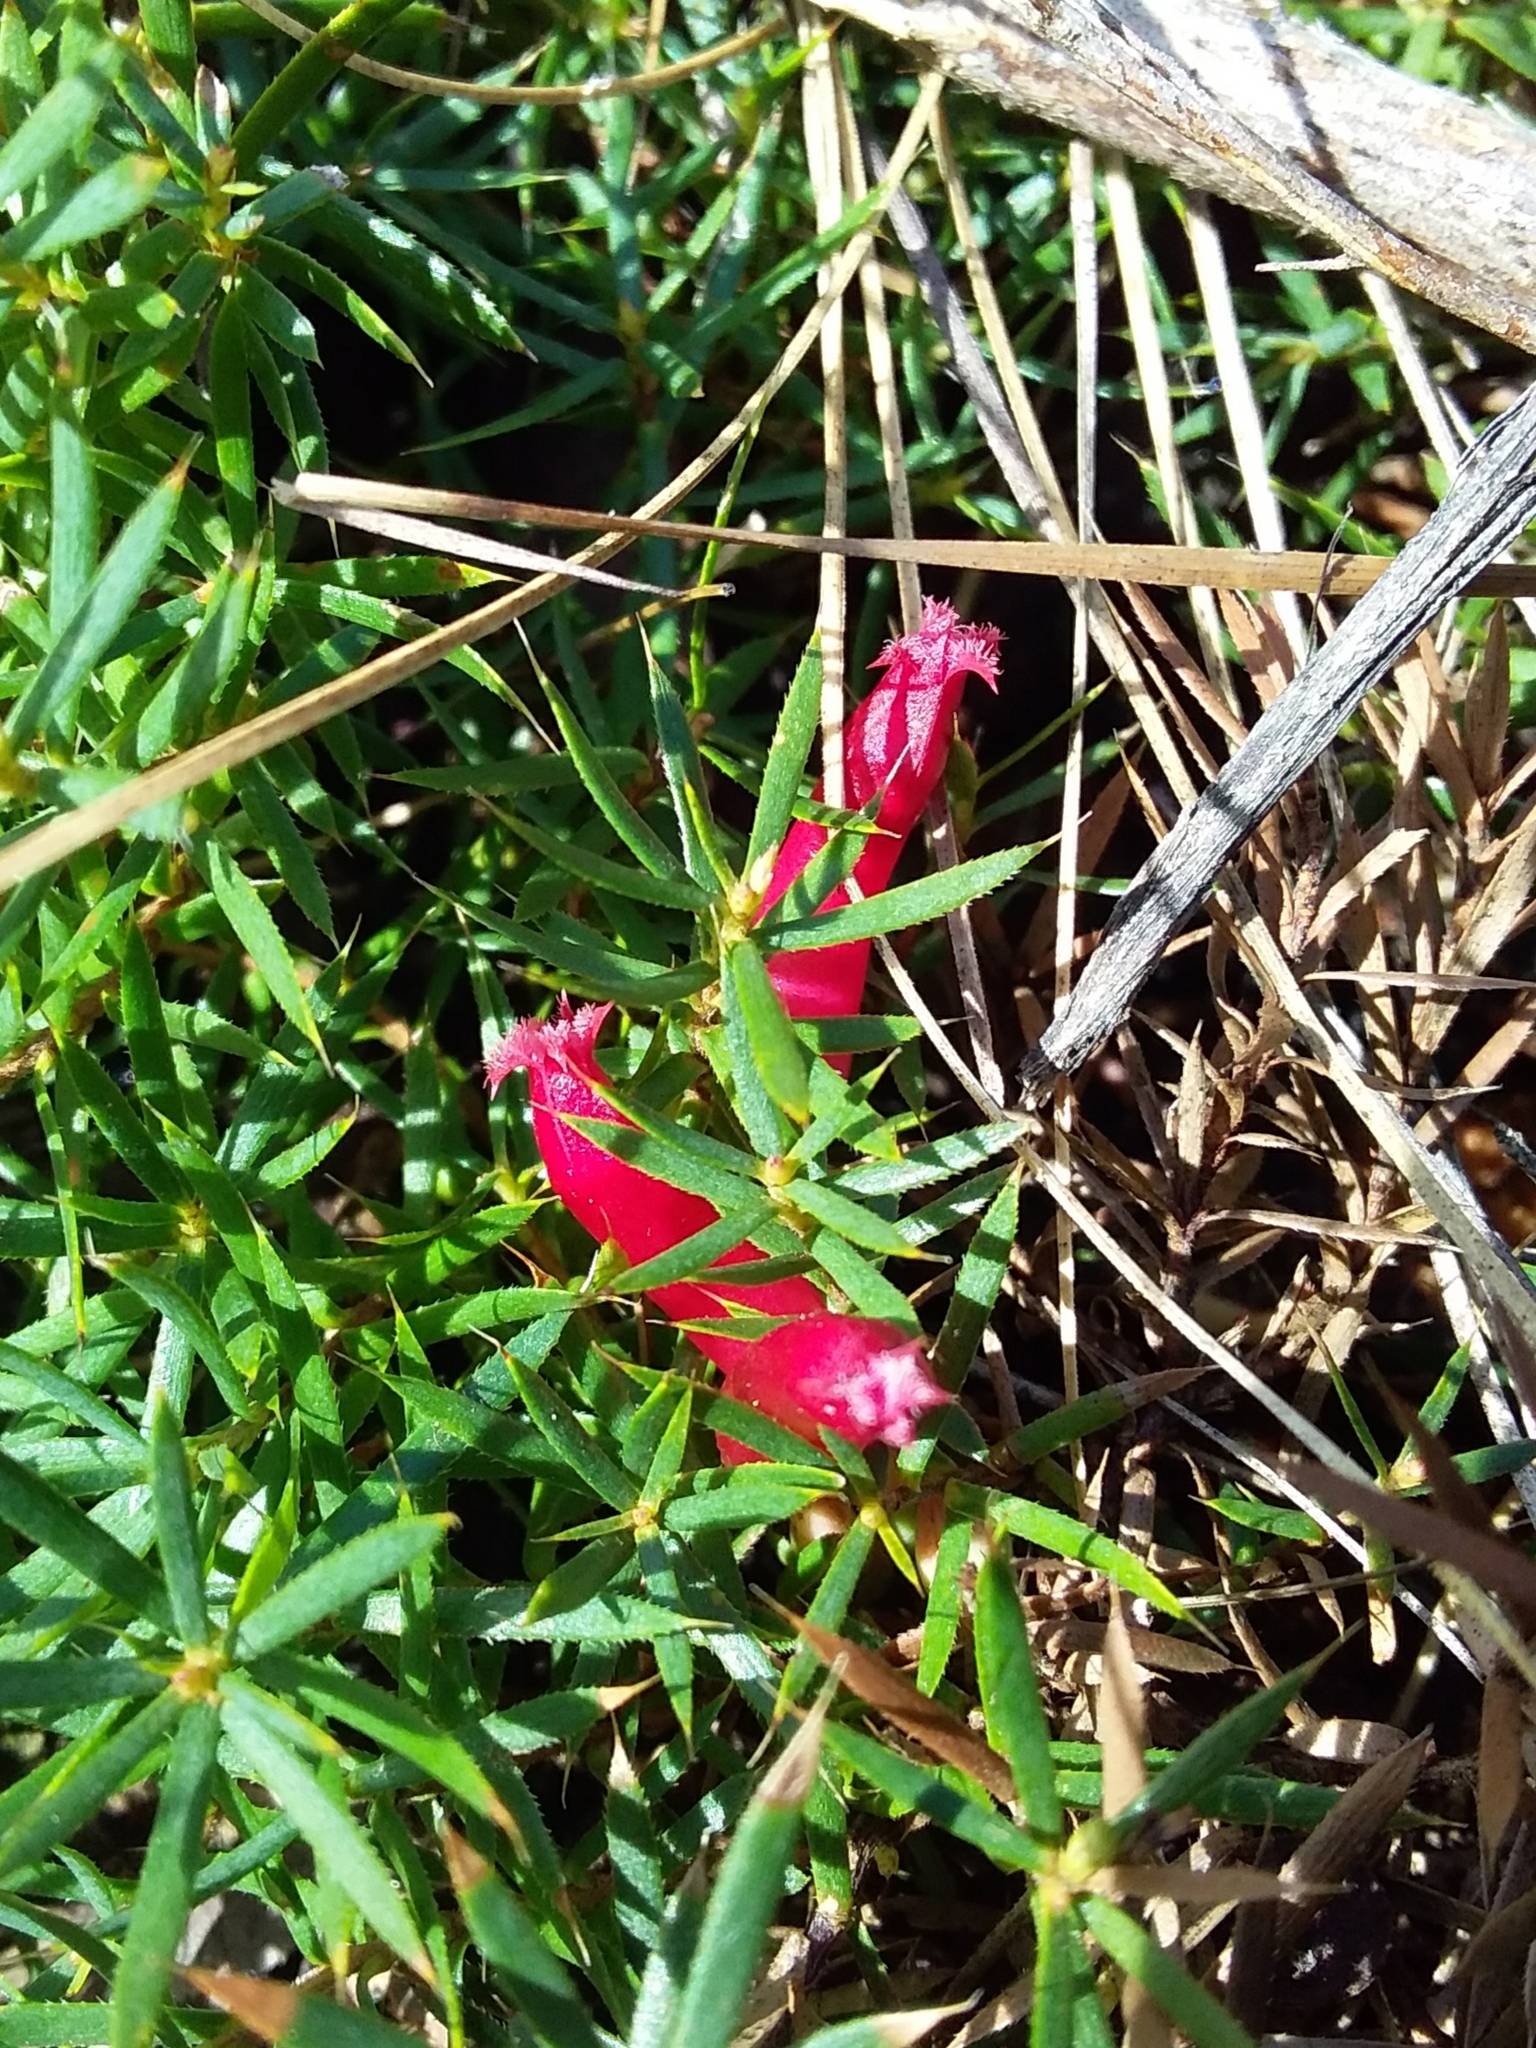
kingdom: Plantae
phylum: Tracheophyta
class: Magnoliopsida
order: Ericales
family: Ericaceae
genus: Styphelia
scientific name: Styphelia humifusa
